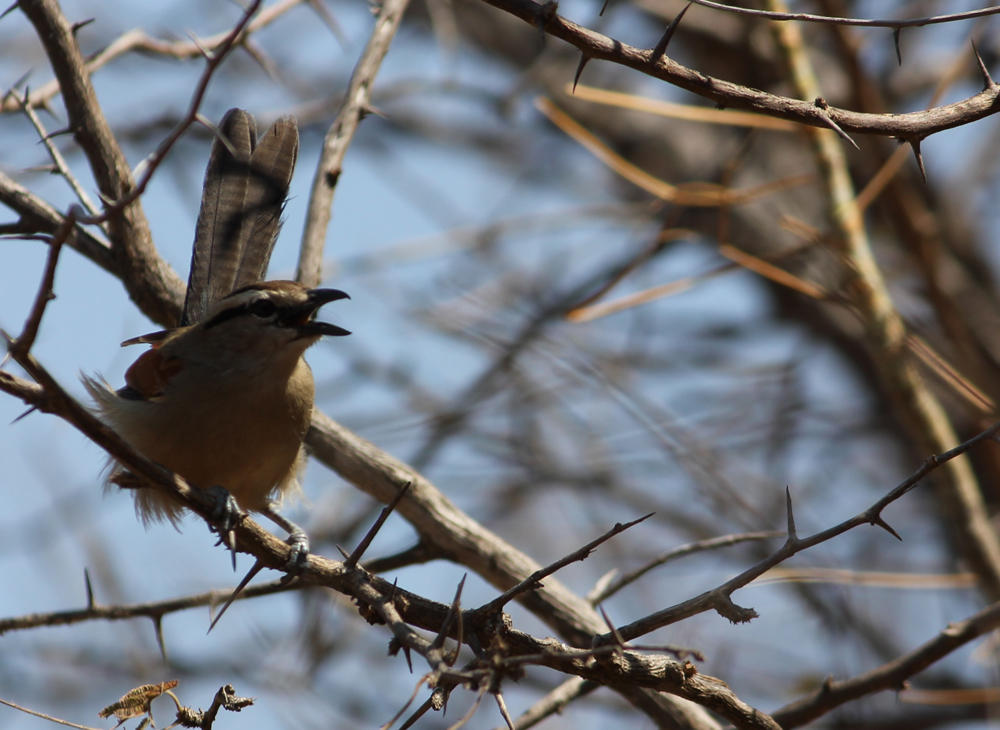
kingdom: Animalia
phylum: Chordata
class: Aves
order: Passeriformes
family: Malaconotidae
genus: Tchagra
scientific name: Tchagra australis
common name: Brown-crowned tchagra
